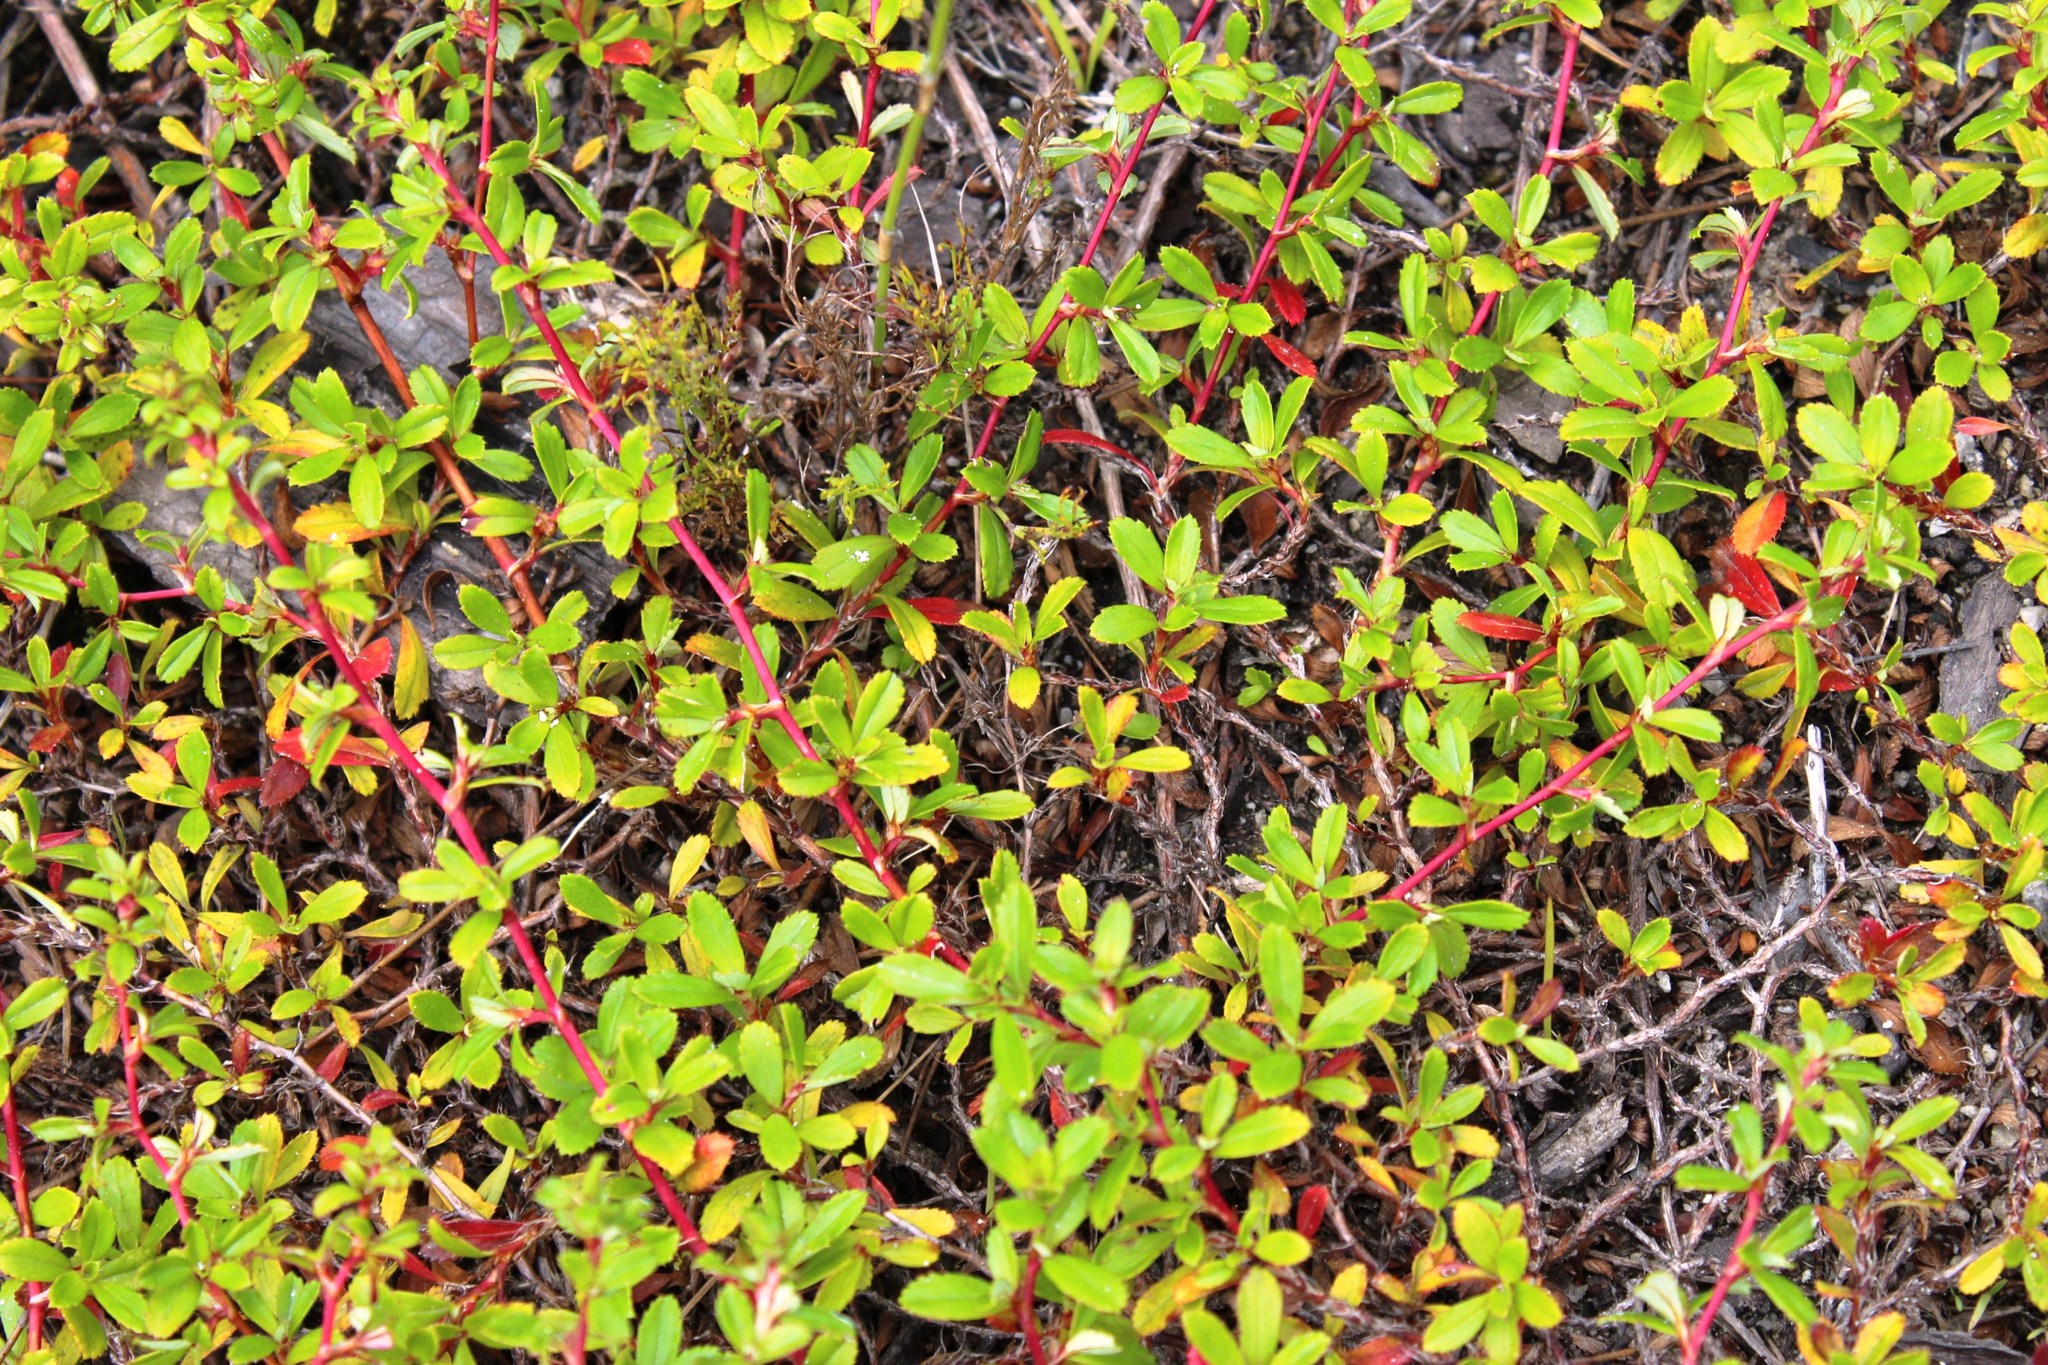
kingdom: Plantae
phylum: Tracheophyta
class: Magnoliopsida
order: Saxifragales
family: Haloragaceae
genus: Laurembergia
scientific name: Laurembergia repens
